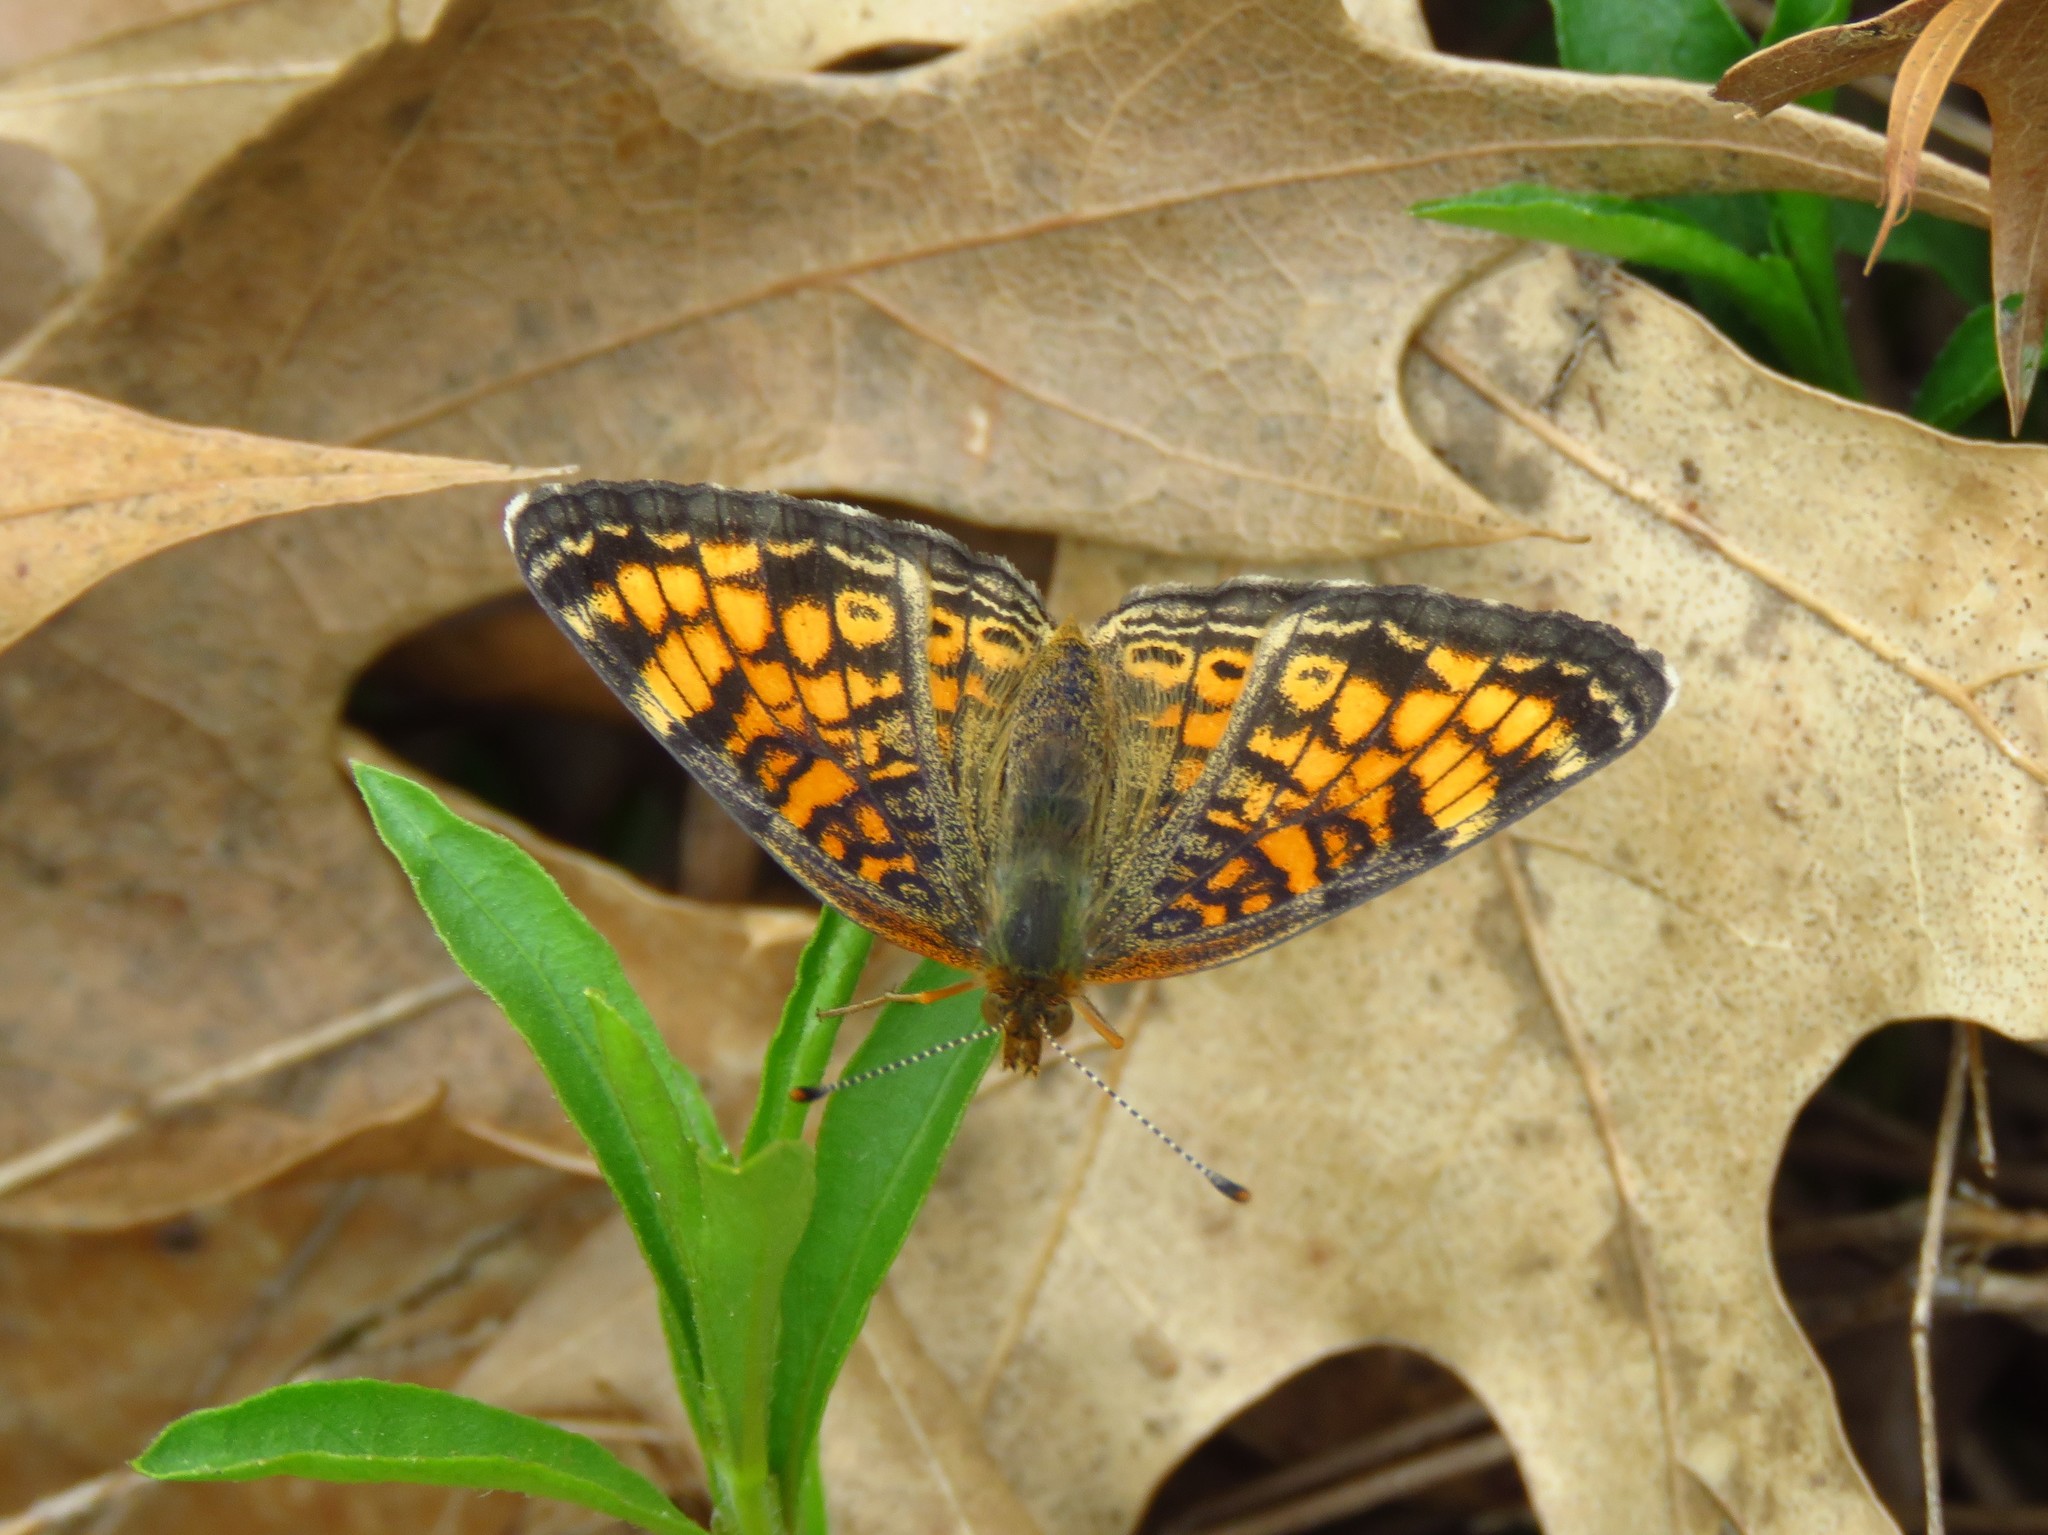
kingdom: Animalia
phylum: Arthropoda
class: Insecta
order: Lepidoptera
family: Nymphalidae
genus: Phyciodes
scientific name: Phyciodes tharos
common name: Pearl crescent
